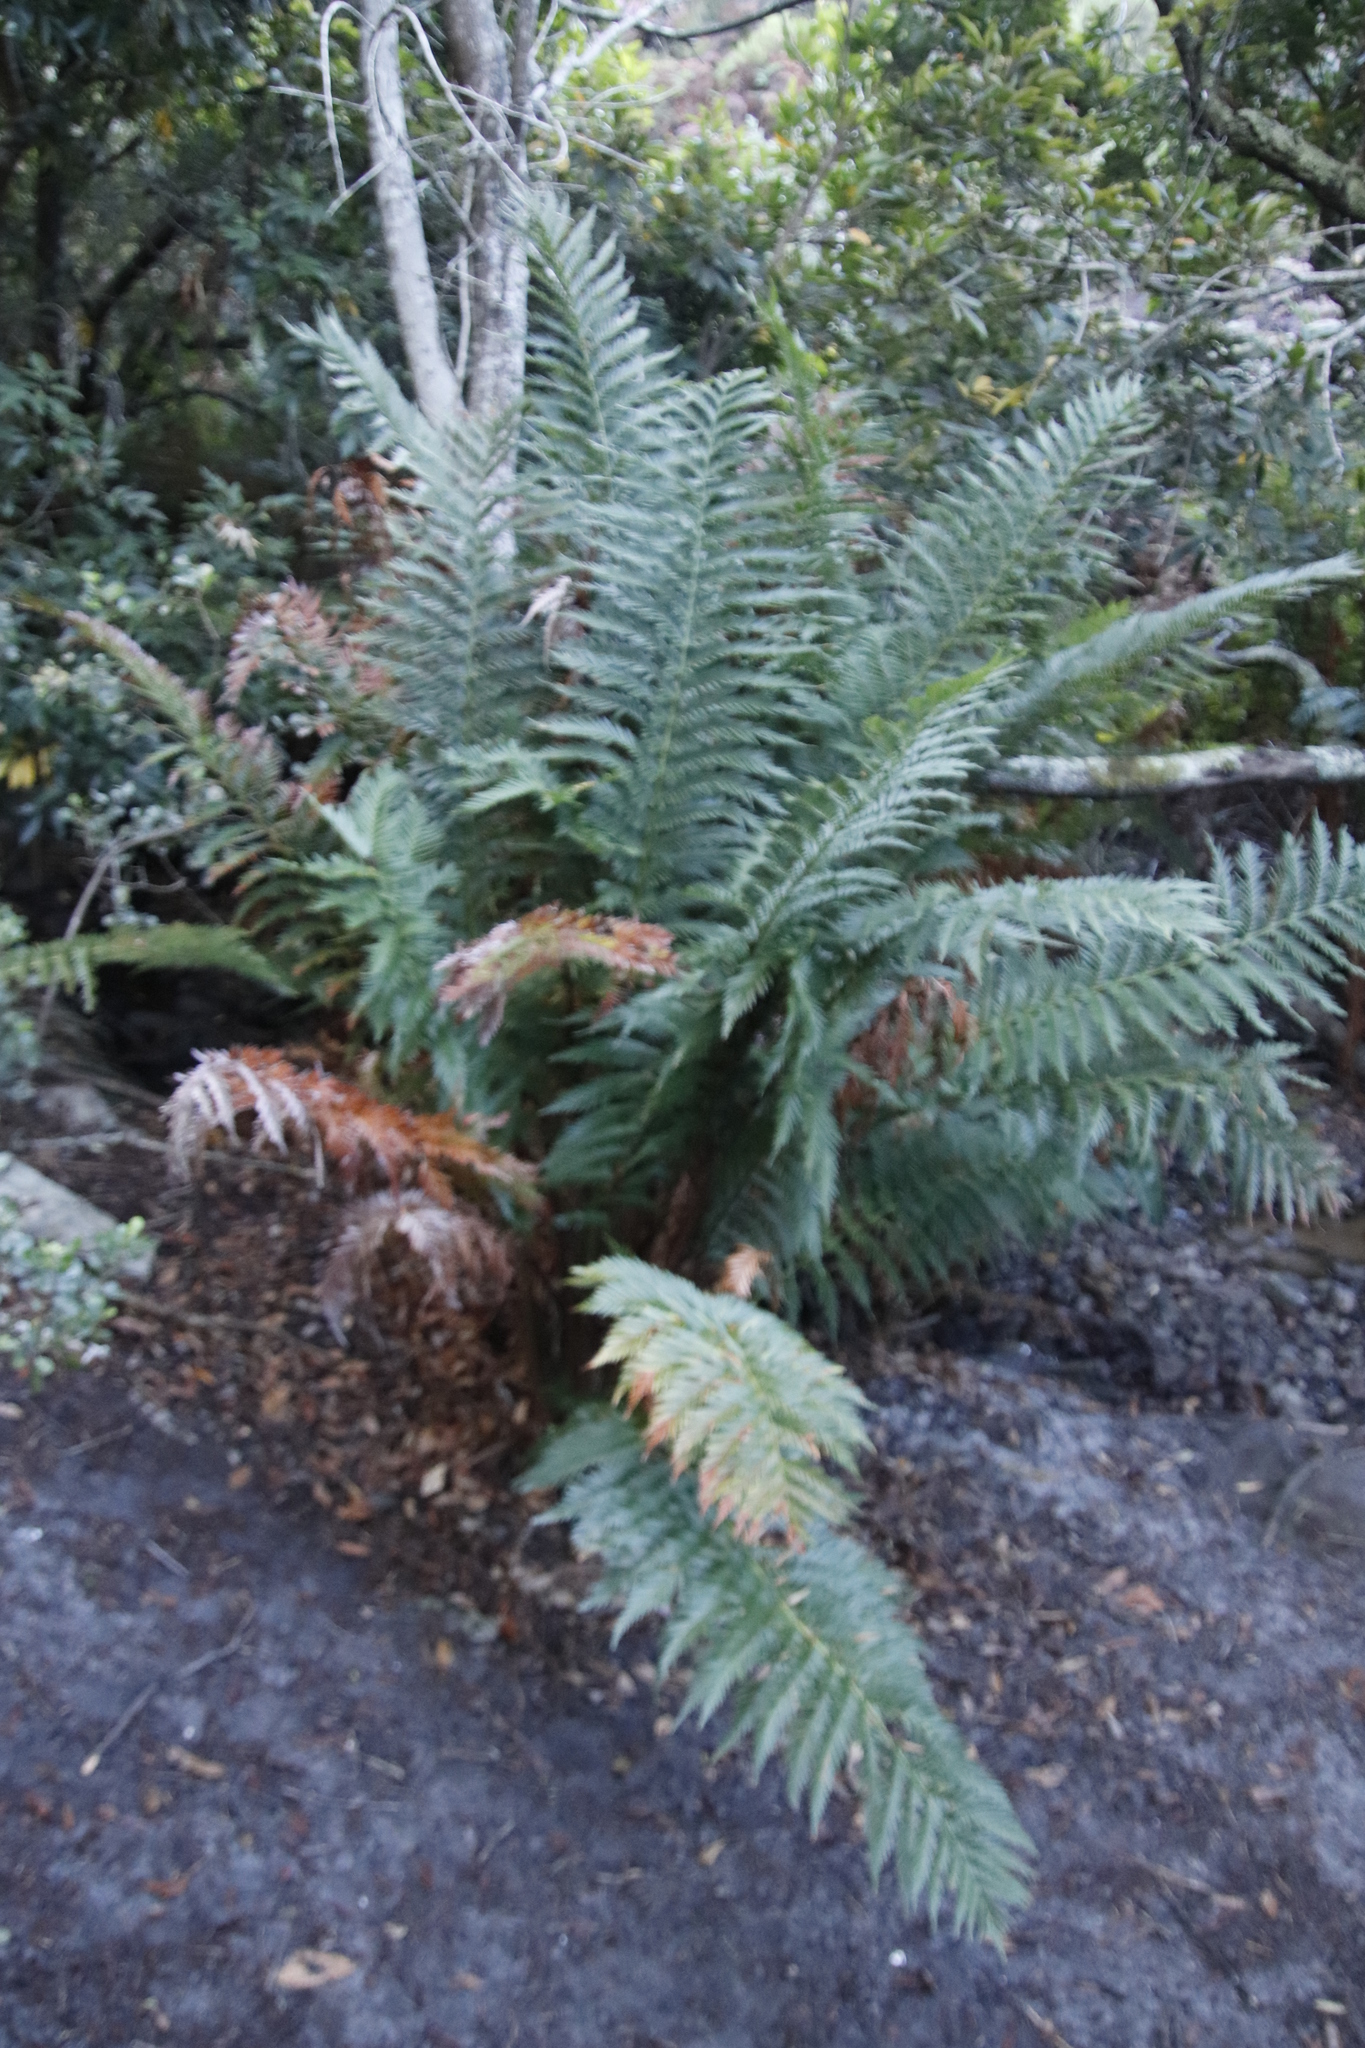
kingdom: Plantae
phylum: Tracheophyta
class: Polypodiopsida
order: Osmundales
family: Osmundaceae
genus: Todea
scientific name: Todea barbara
